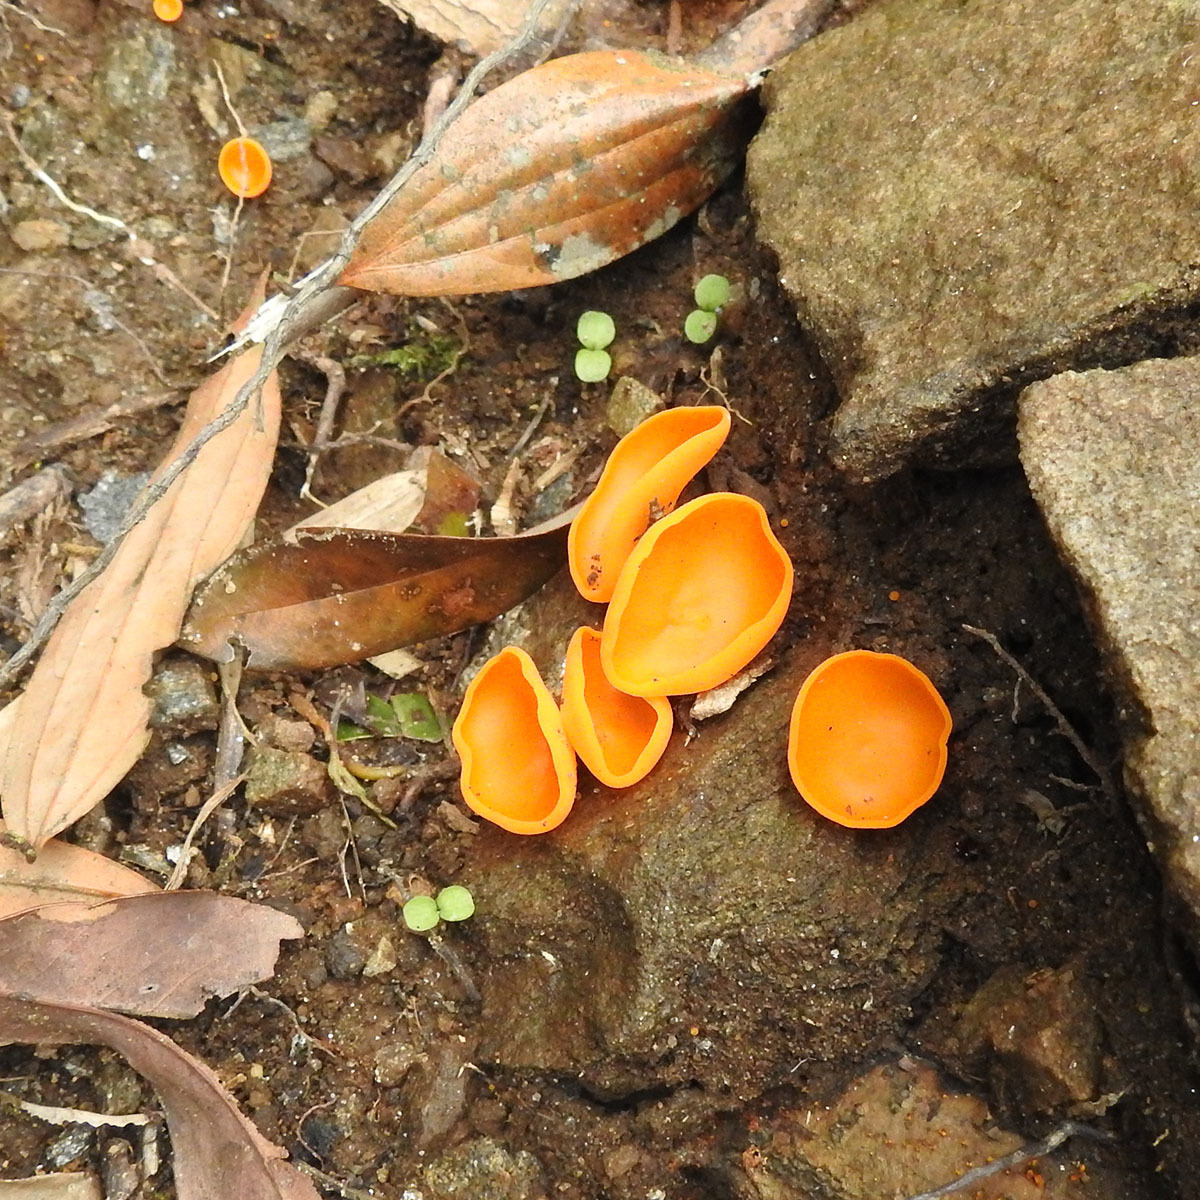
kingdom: Fungi
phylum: Ascomycota
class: Pezizomycetes
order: Pezizales
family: Pyronemataceae
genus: Aleuria
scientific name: Aleuria aurantia
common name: Orange peel fungus
